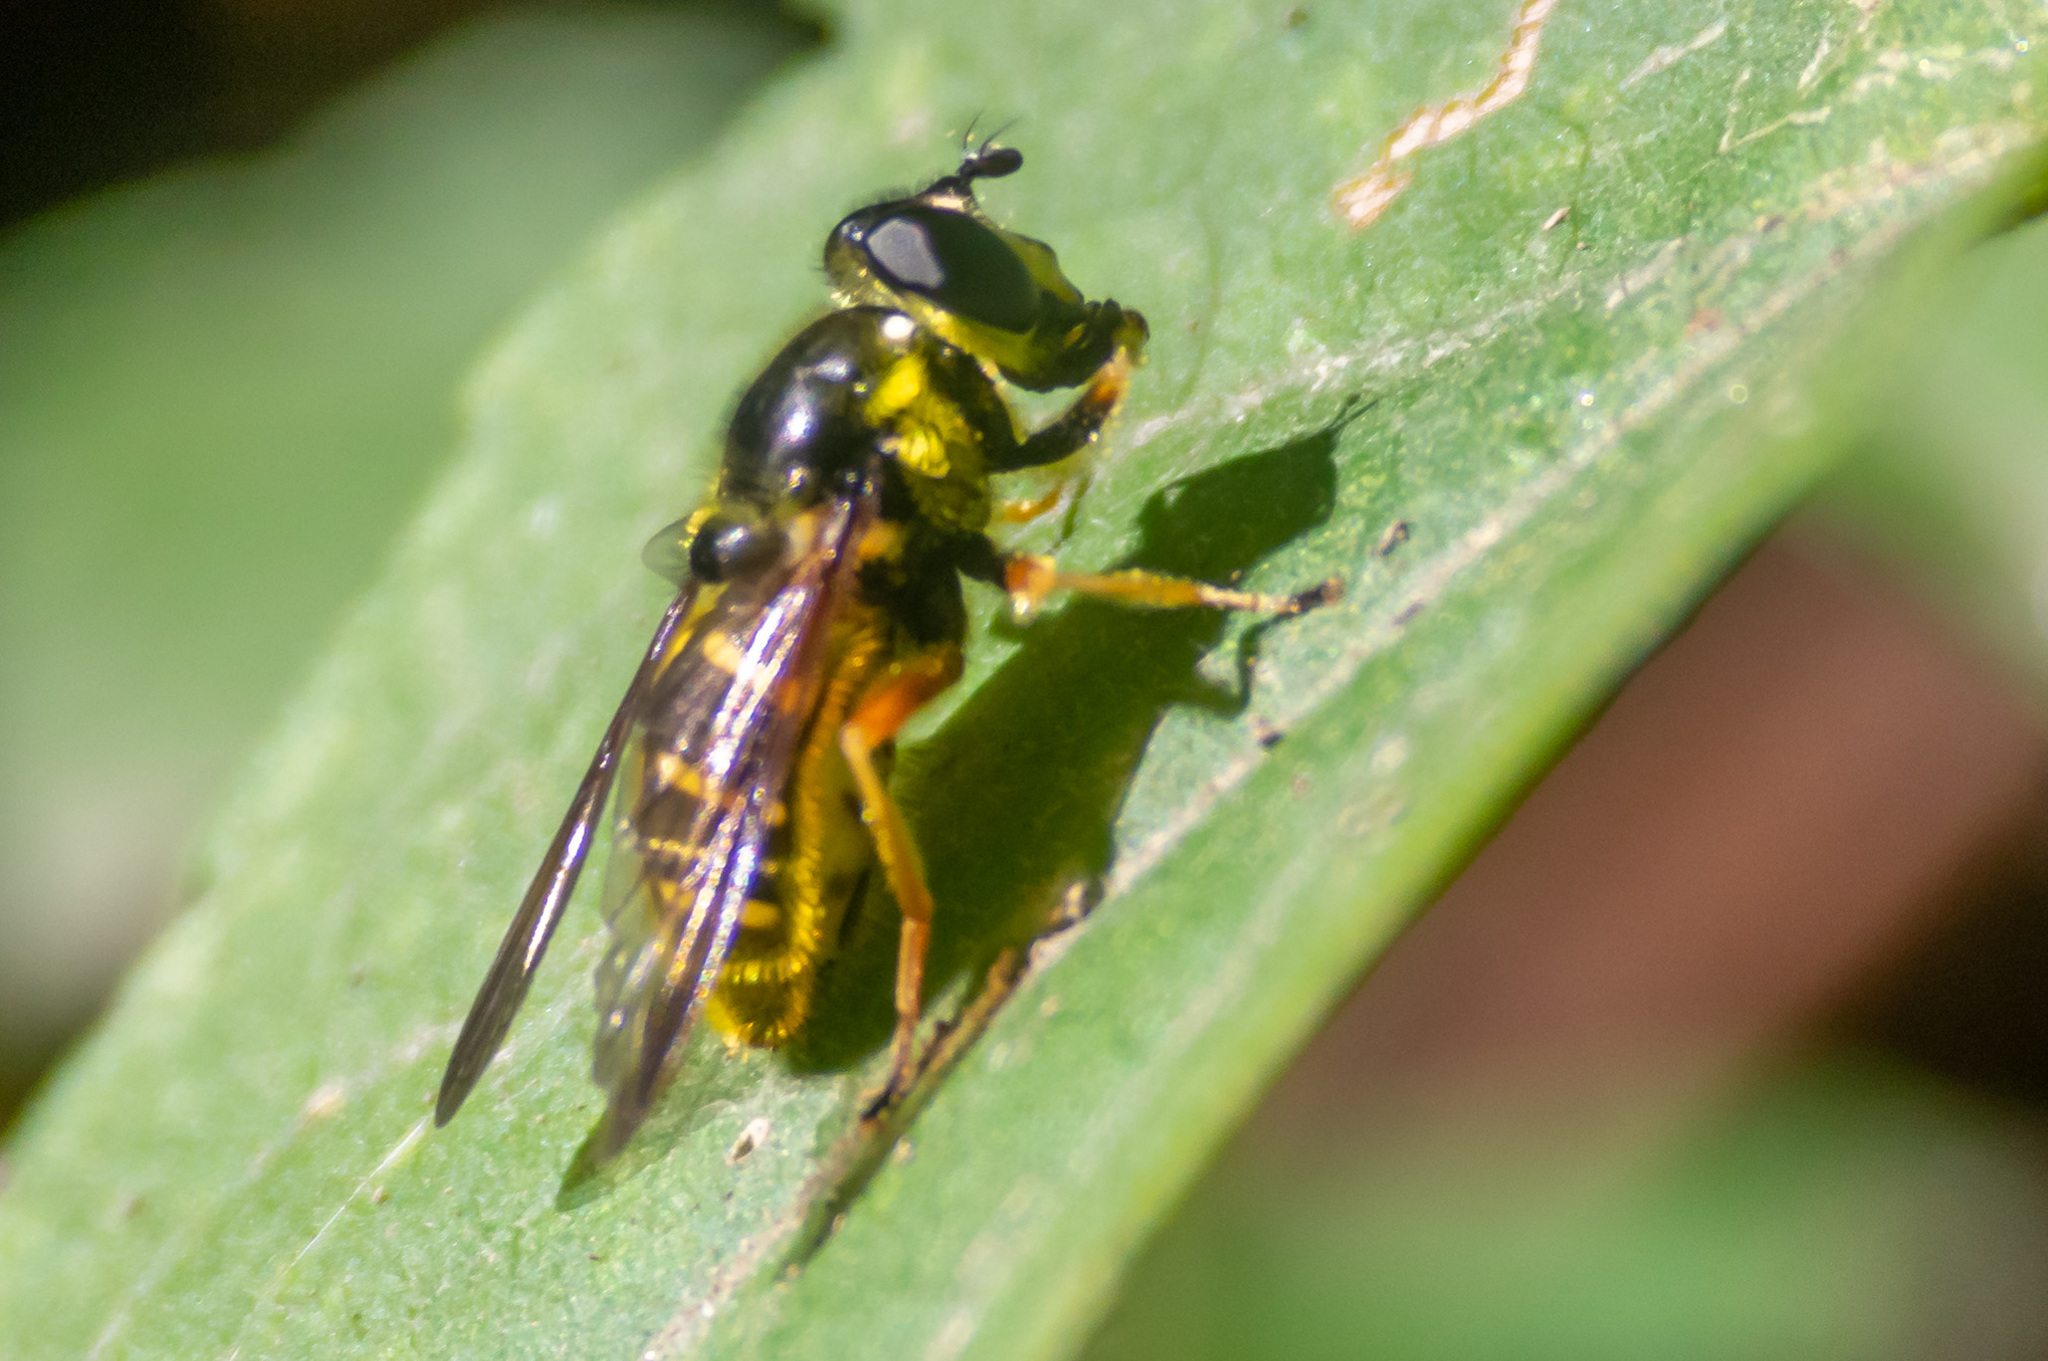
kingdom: Animalia
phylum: Arthropoda
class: Insecta
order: Diptera
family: Syrphidae
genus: Sericomyia
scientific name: Sericomyia chrysotoxoides
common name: Oblique-banded pond fly
